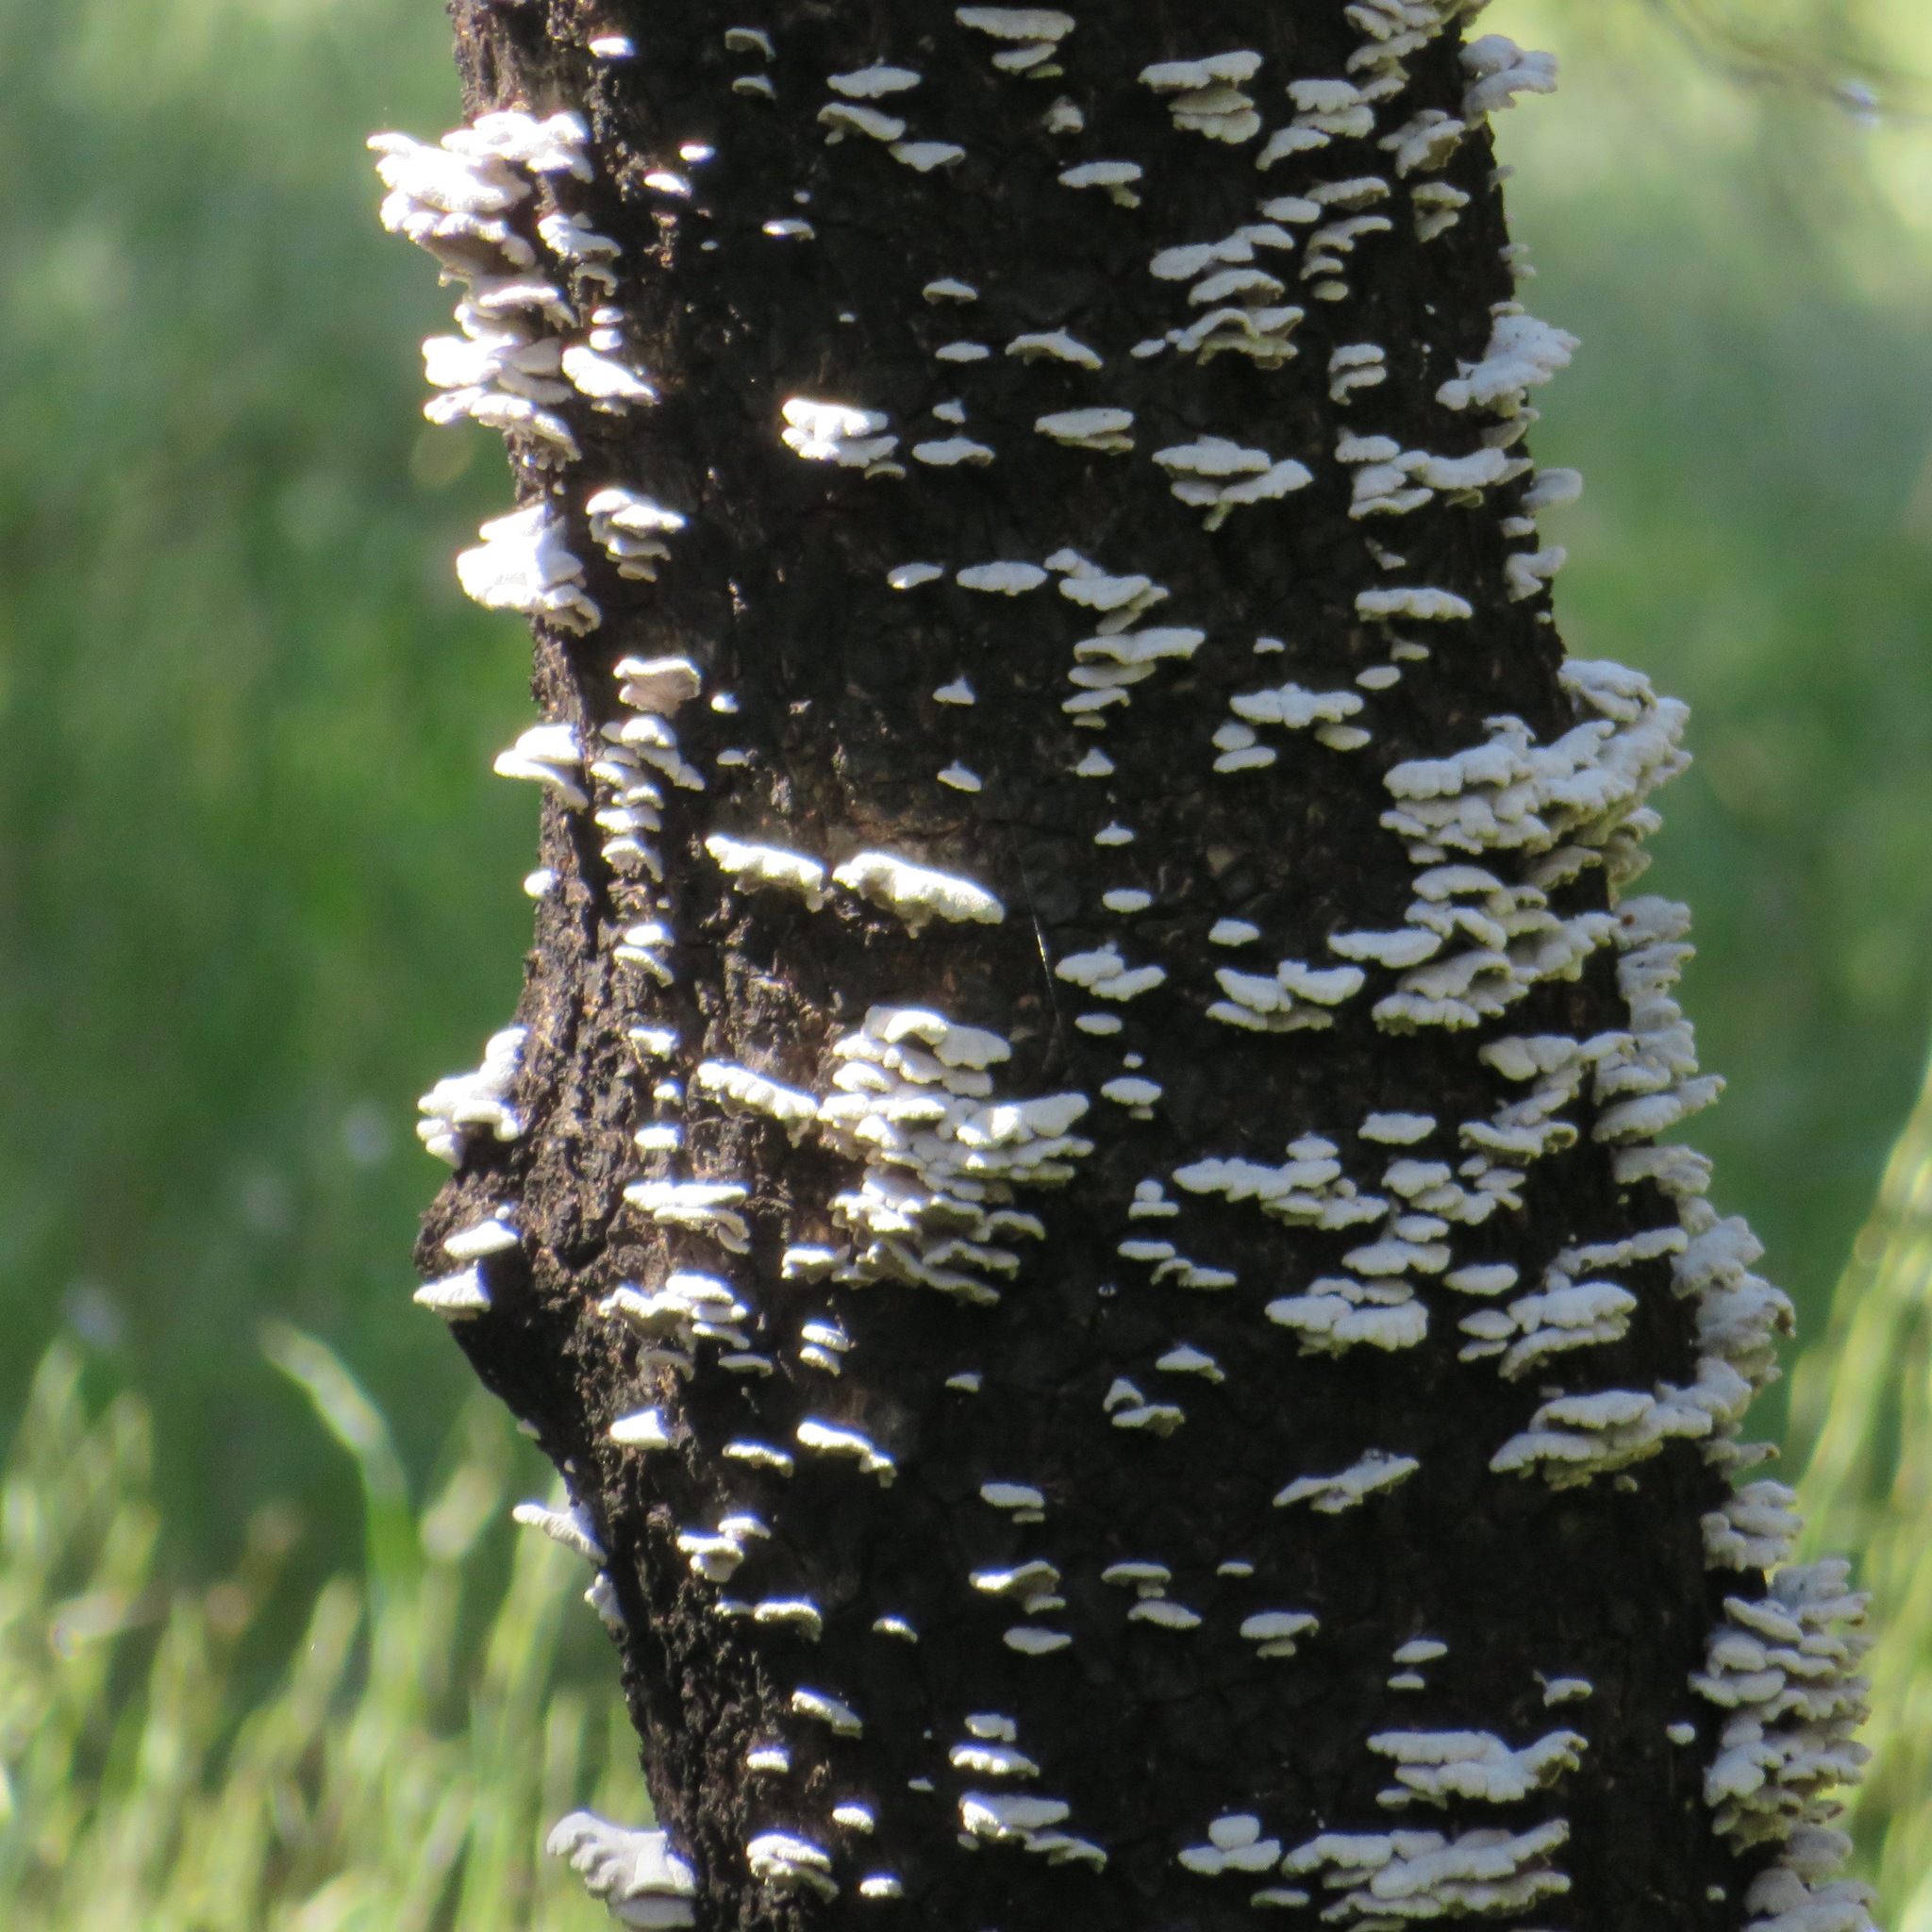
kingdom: Fungi
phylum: Basidiomycota
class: Agaricomycetes
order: Agaricales
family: Schizophyllaceae
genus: Schizophyllum
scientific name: Schizophyllum commune
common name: Common porecrust
